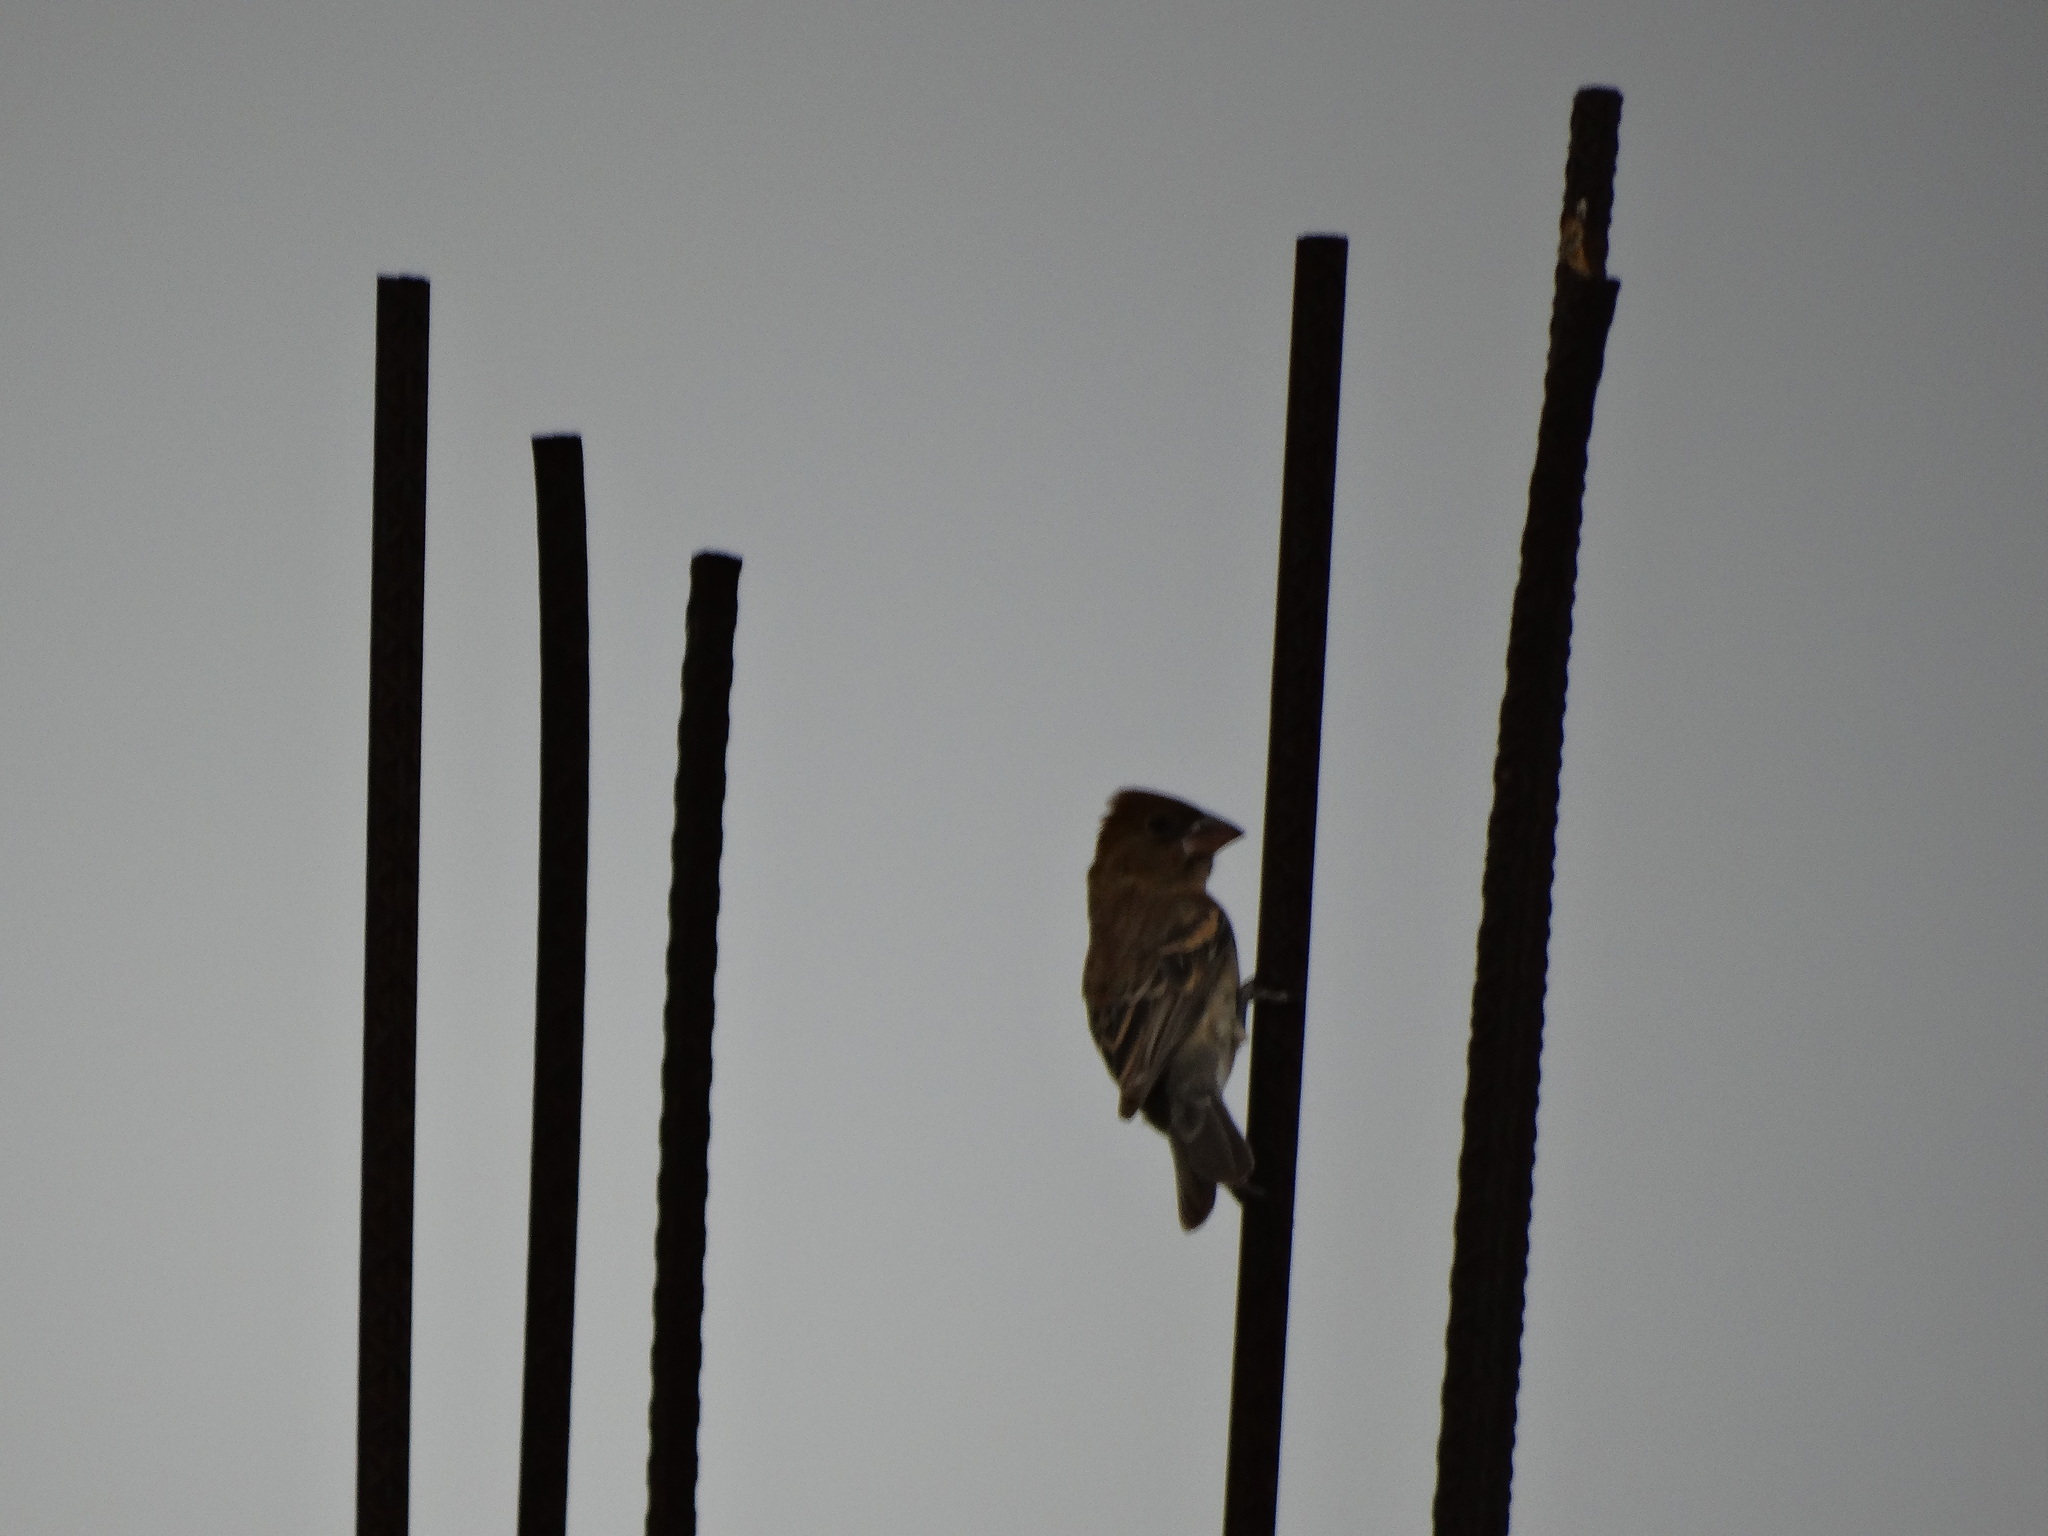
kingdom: Animalia
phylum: Chordata
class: Aves
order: Passeriformes
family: Cardinalidae
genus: Passerina
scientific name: Passerina caerulea
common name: Blue grosbeak
